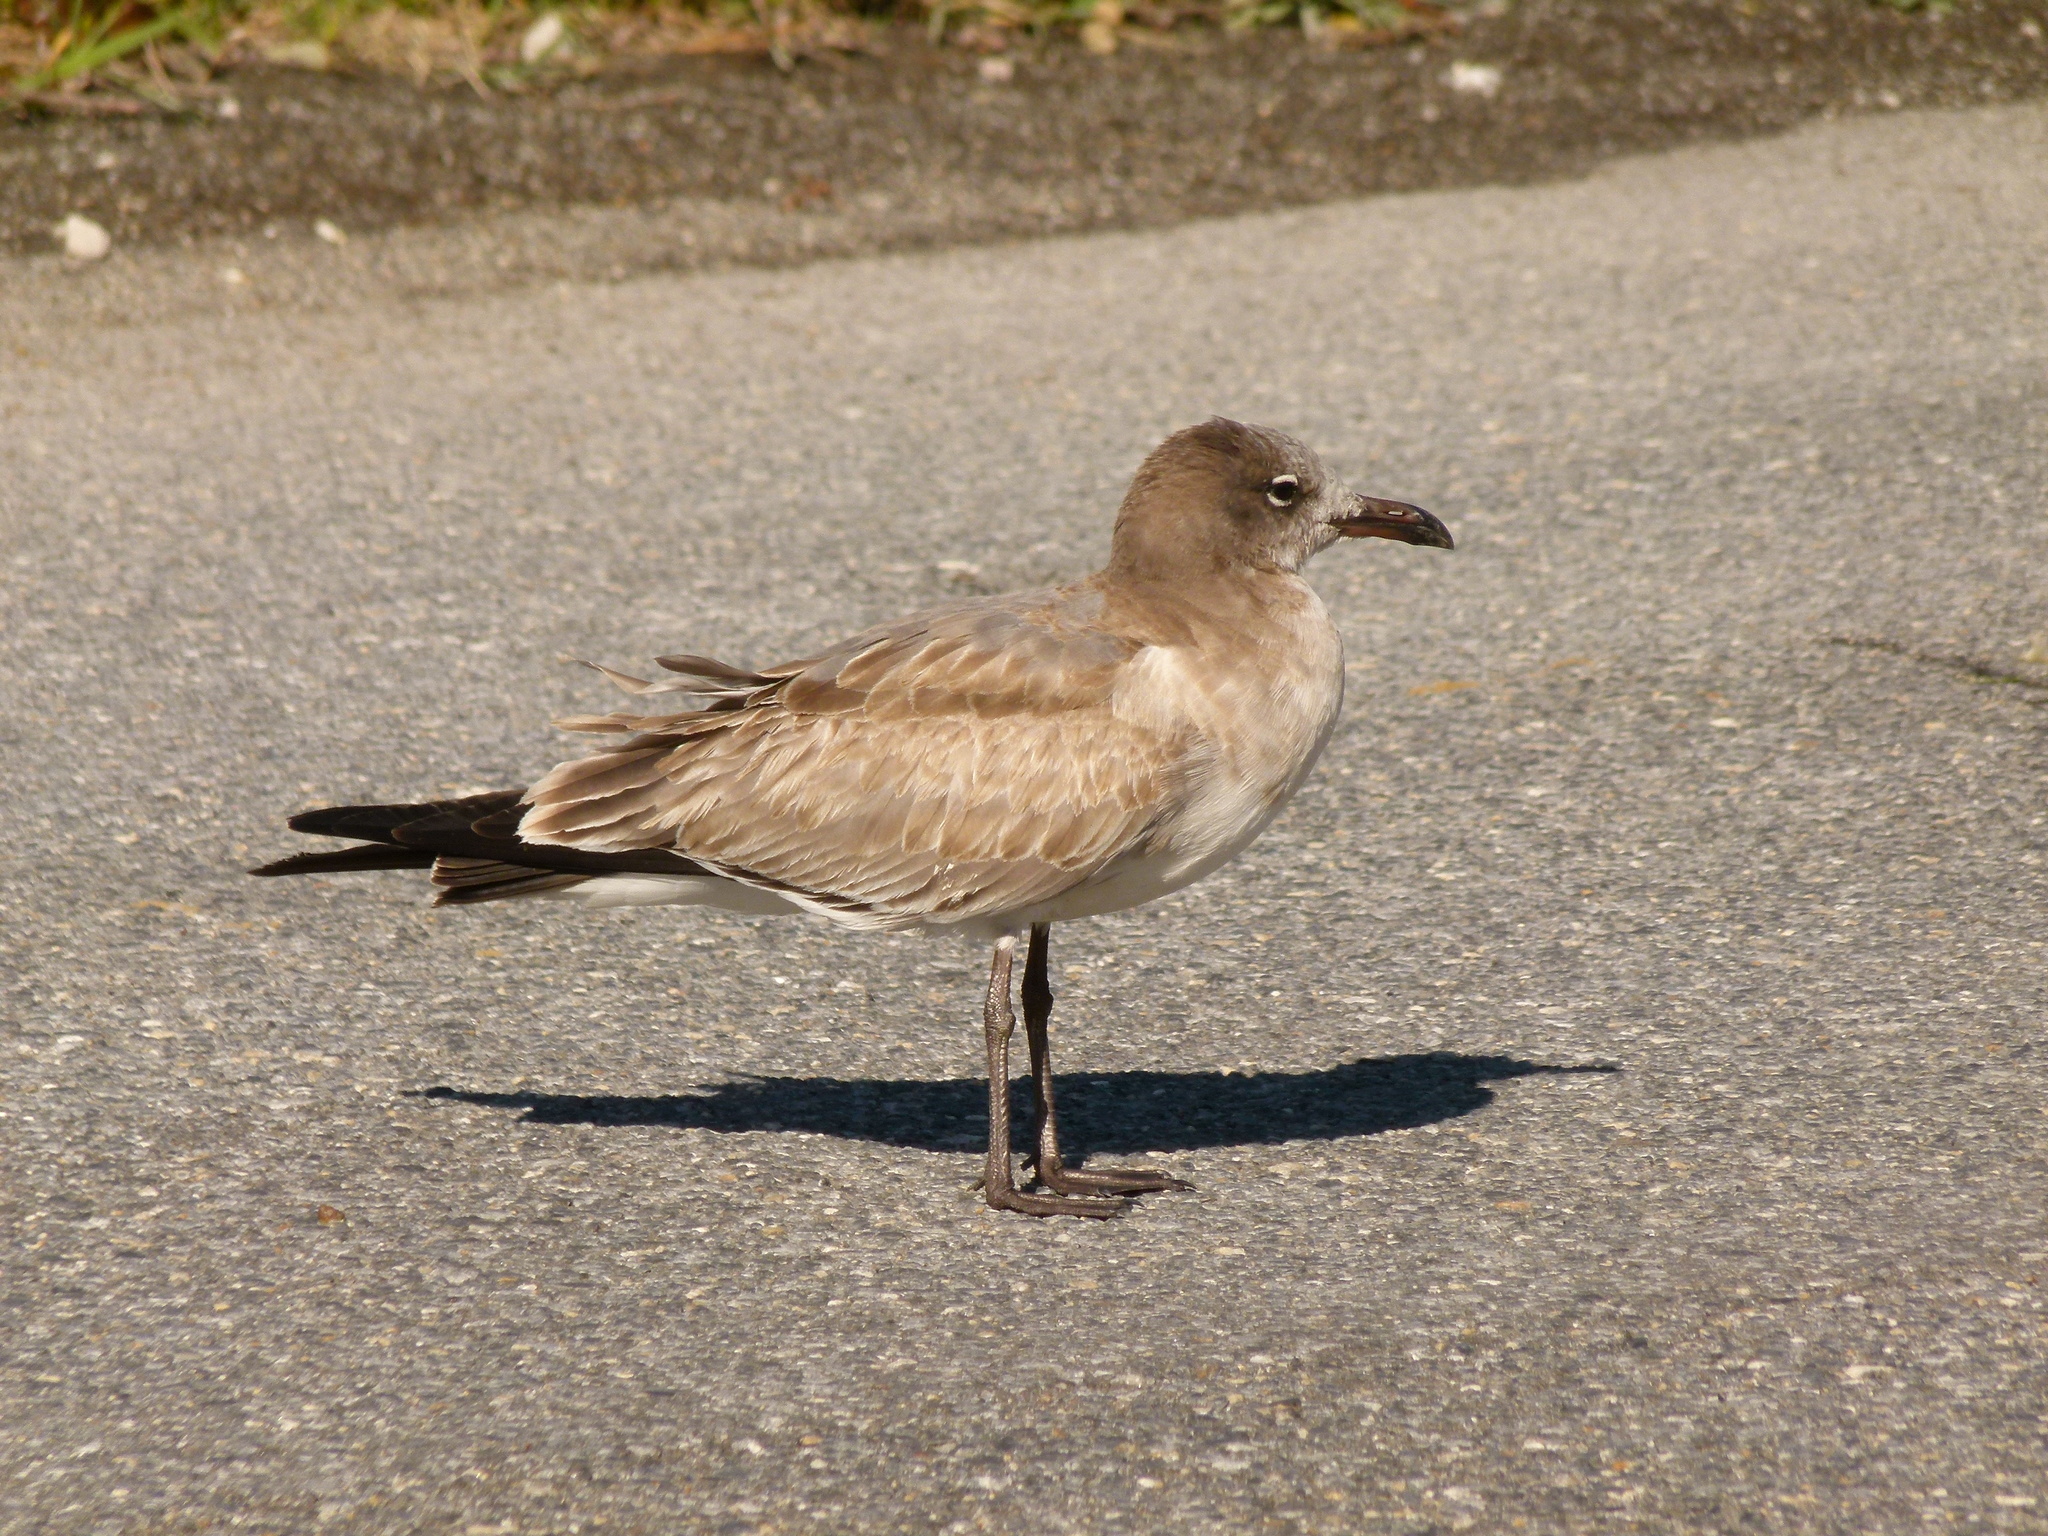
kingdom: Animalia
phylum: Chordata
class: Aves
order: Charadriiformes
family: Laridae
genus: Leucophaeus
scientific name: Leucophaeus atricilla
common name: Laughing gull
